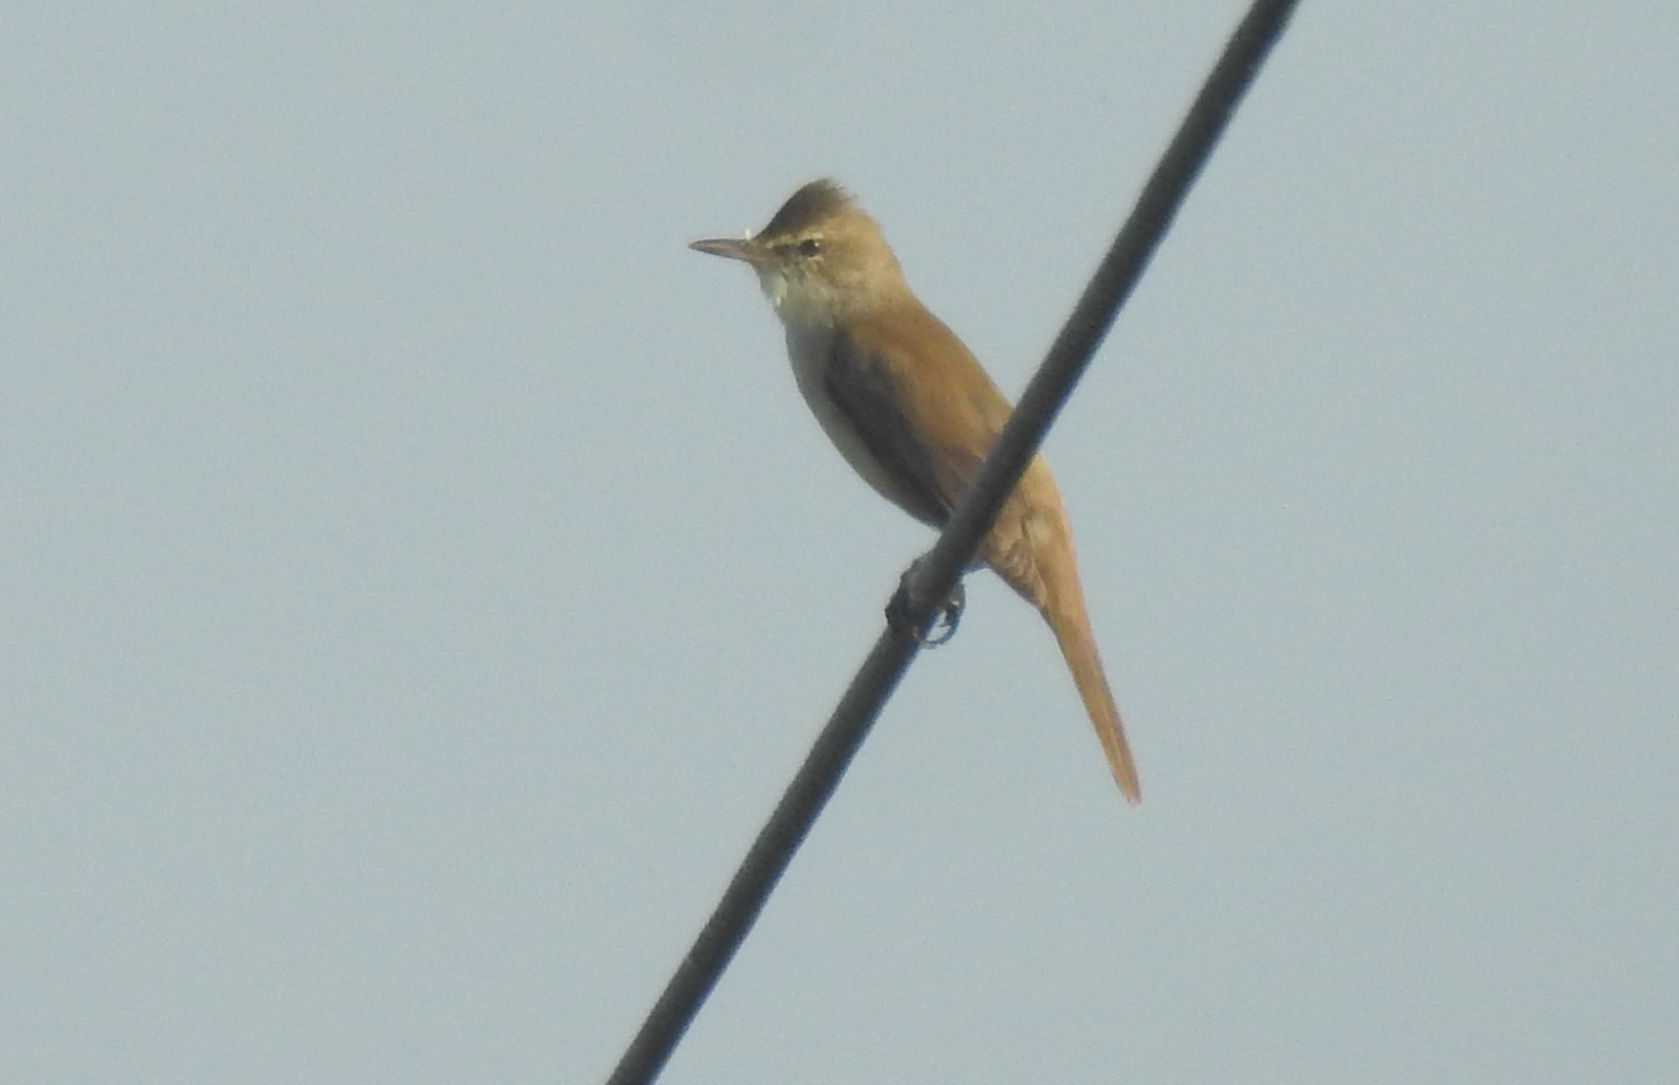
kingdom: Animalia
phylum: Chordata
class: Aves
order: Passeriformes
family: Acrocephalidae
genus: Acrocephalus
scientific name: Acrocephalus stentoreus
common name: Clamorous reed warbler
